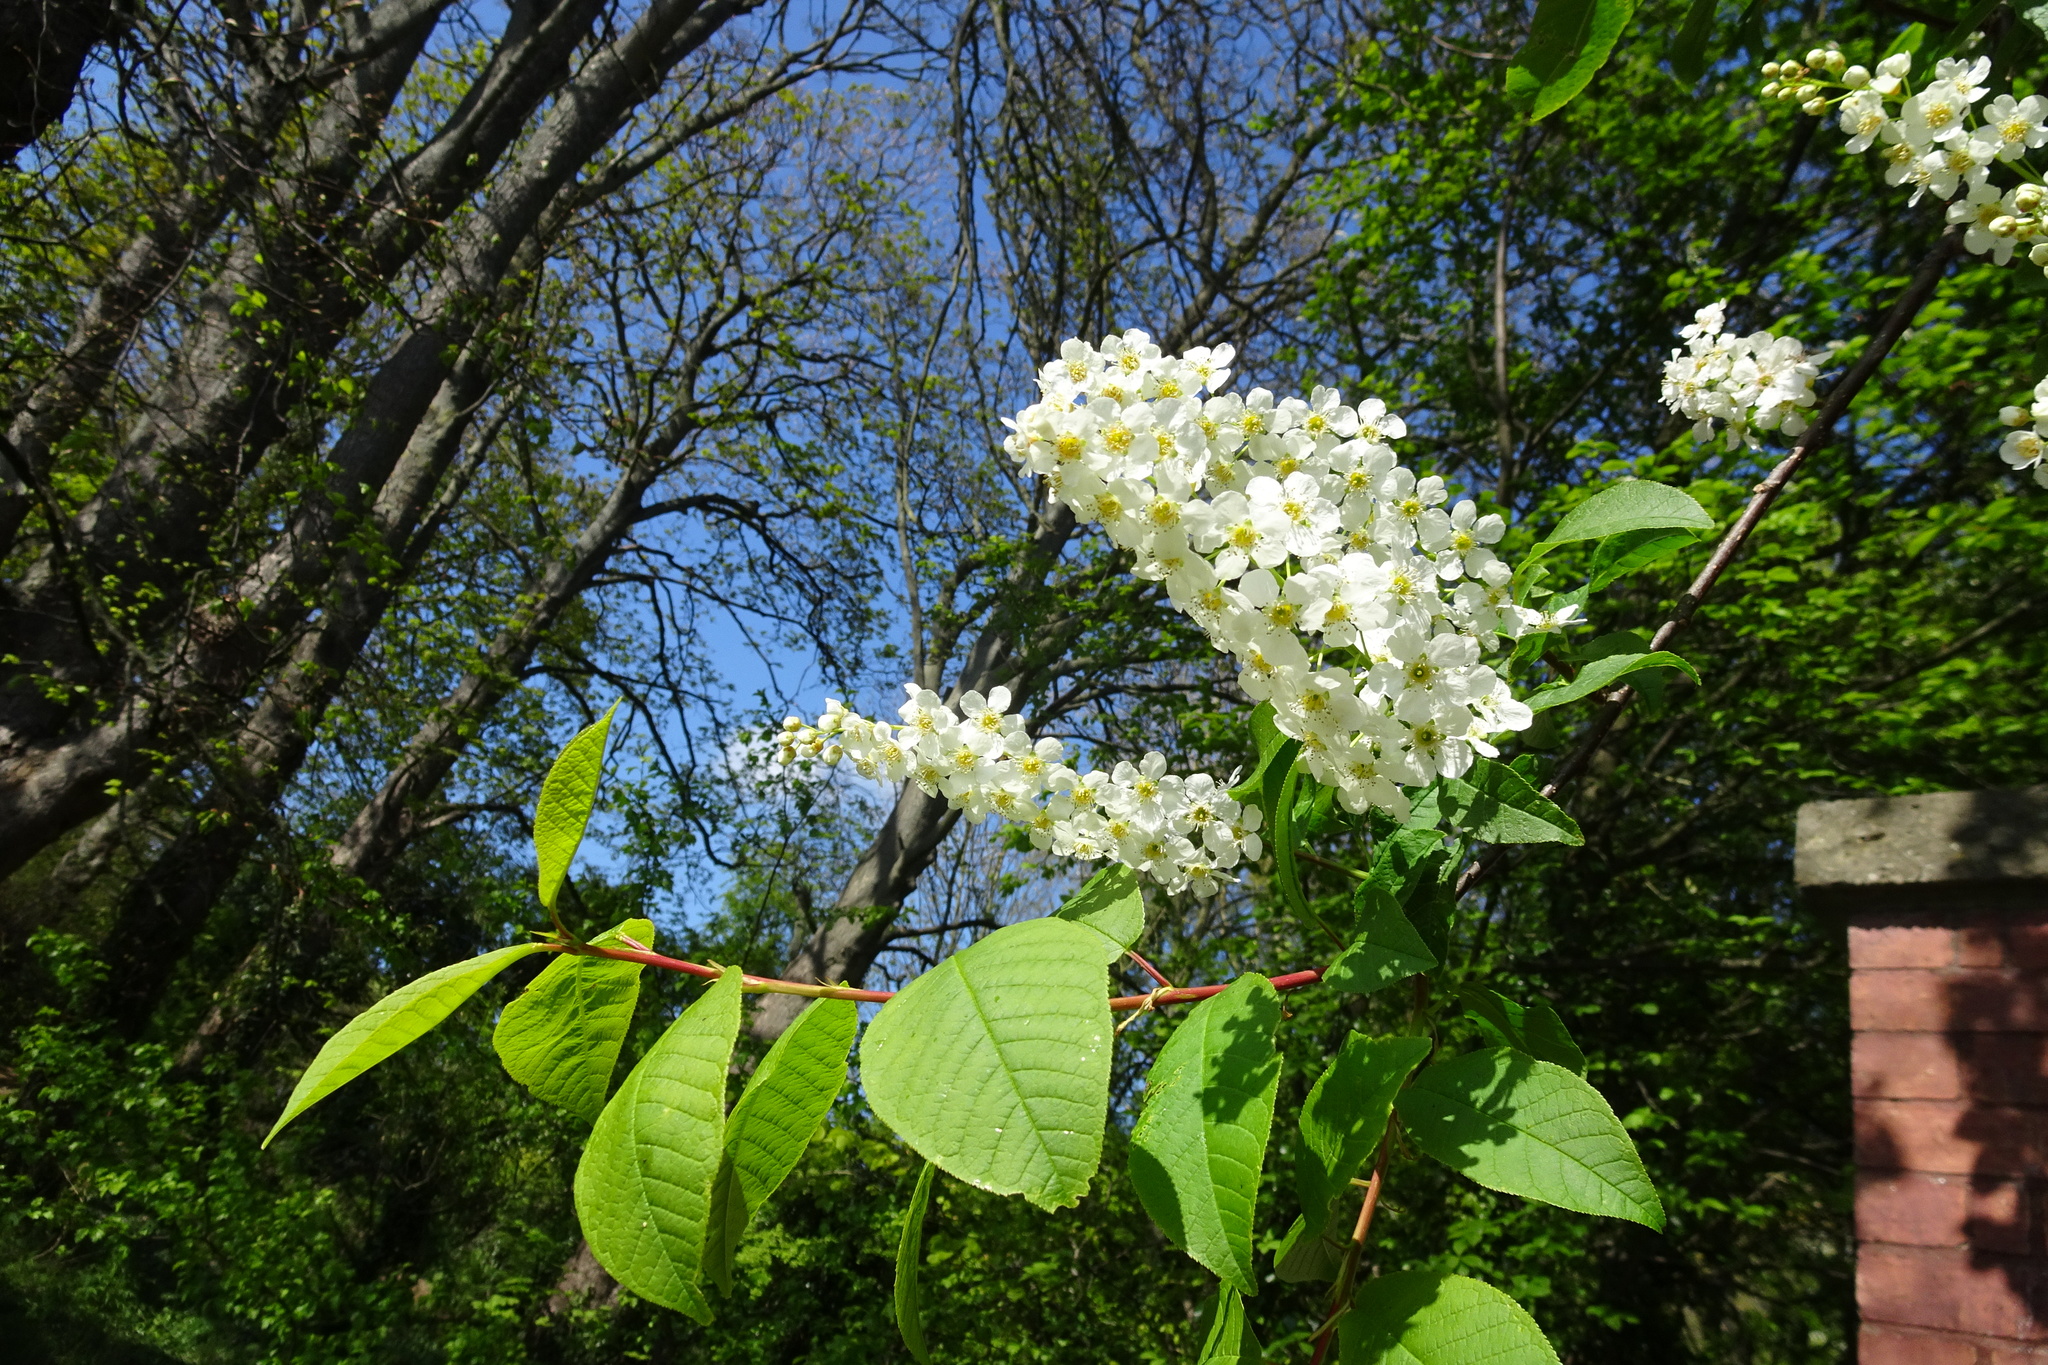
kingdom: Plantae
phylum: Tracheophyta
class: Magnoliopsida
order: Rosales
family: Rosaceae
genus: Prunus
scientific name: Prunus padus
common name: Bird cherry
